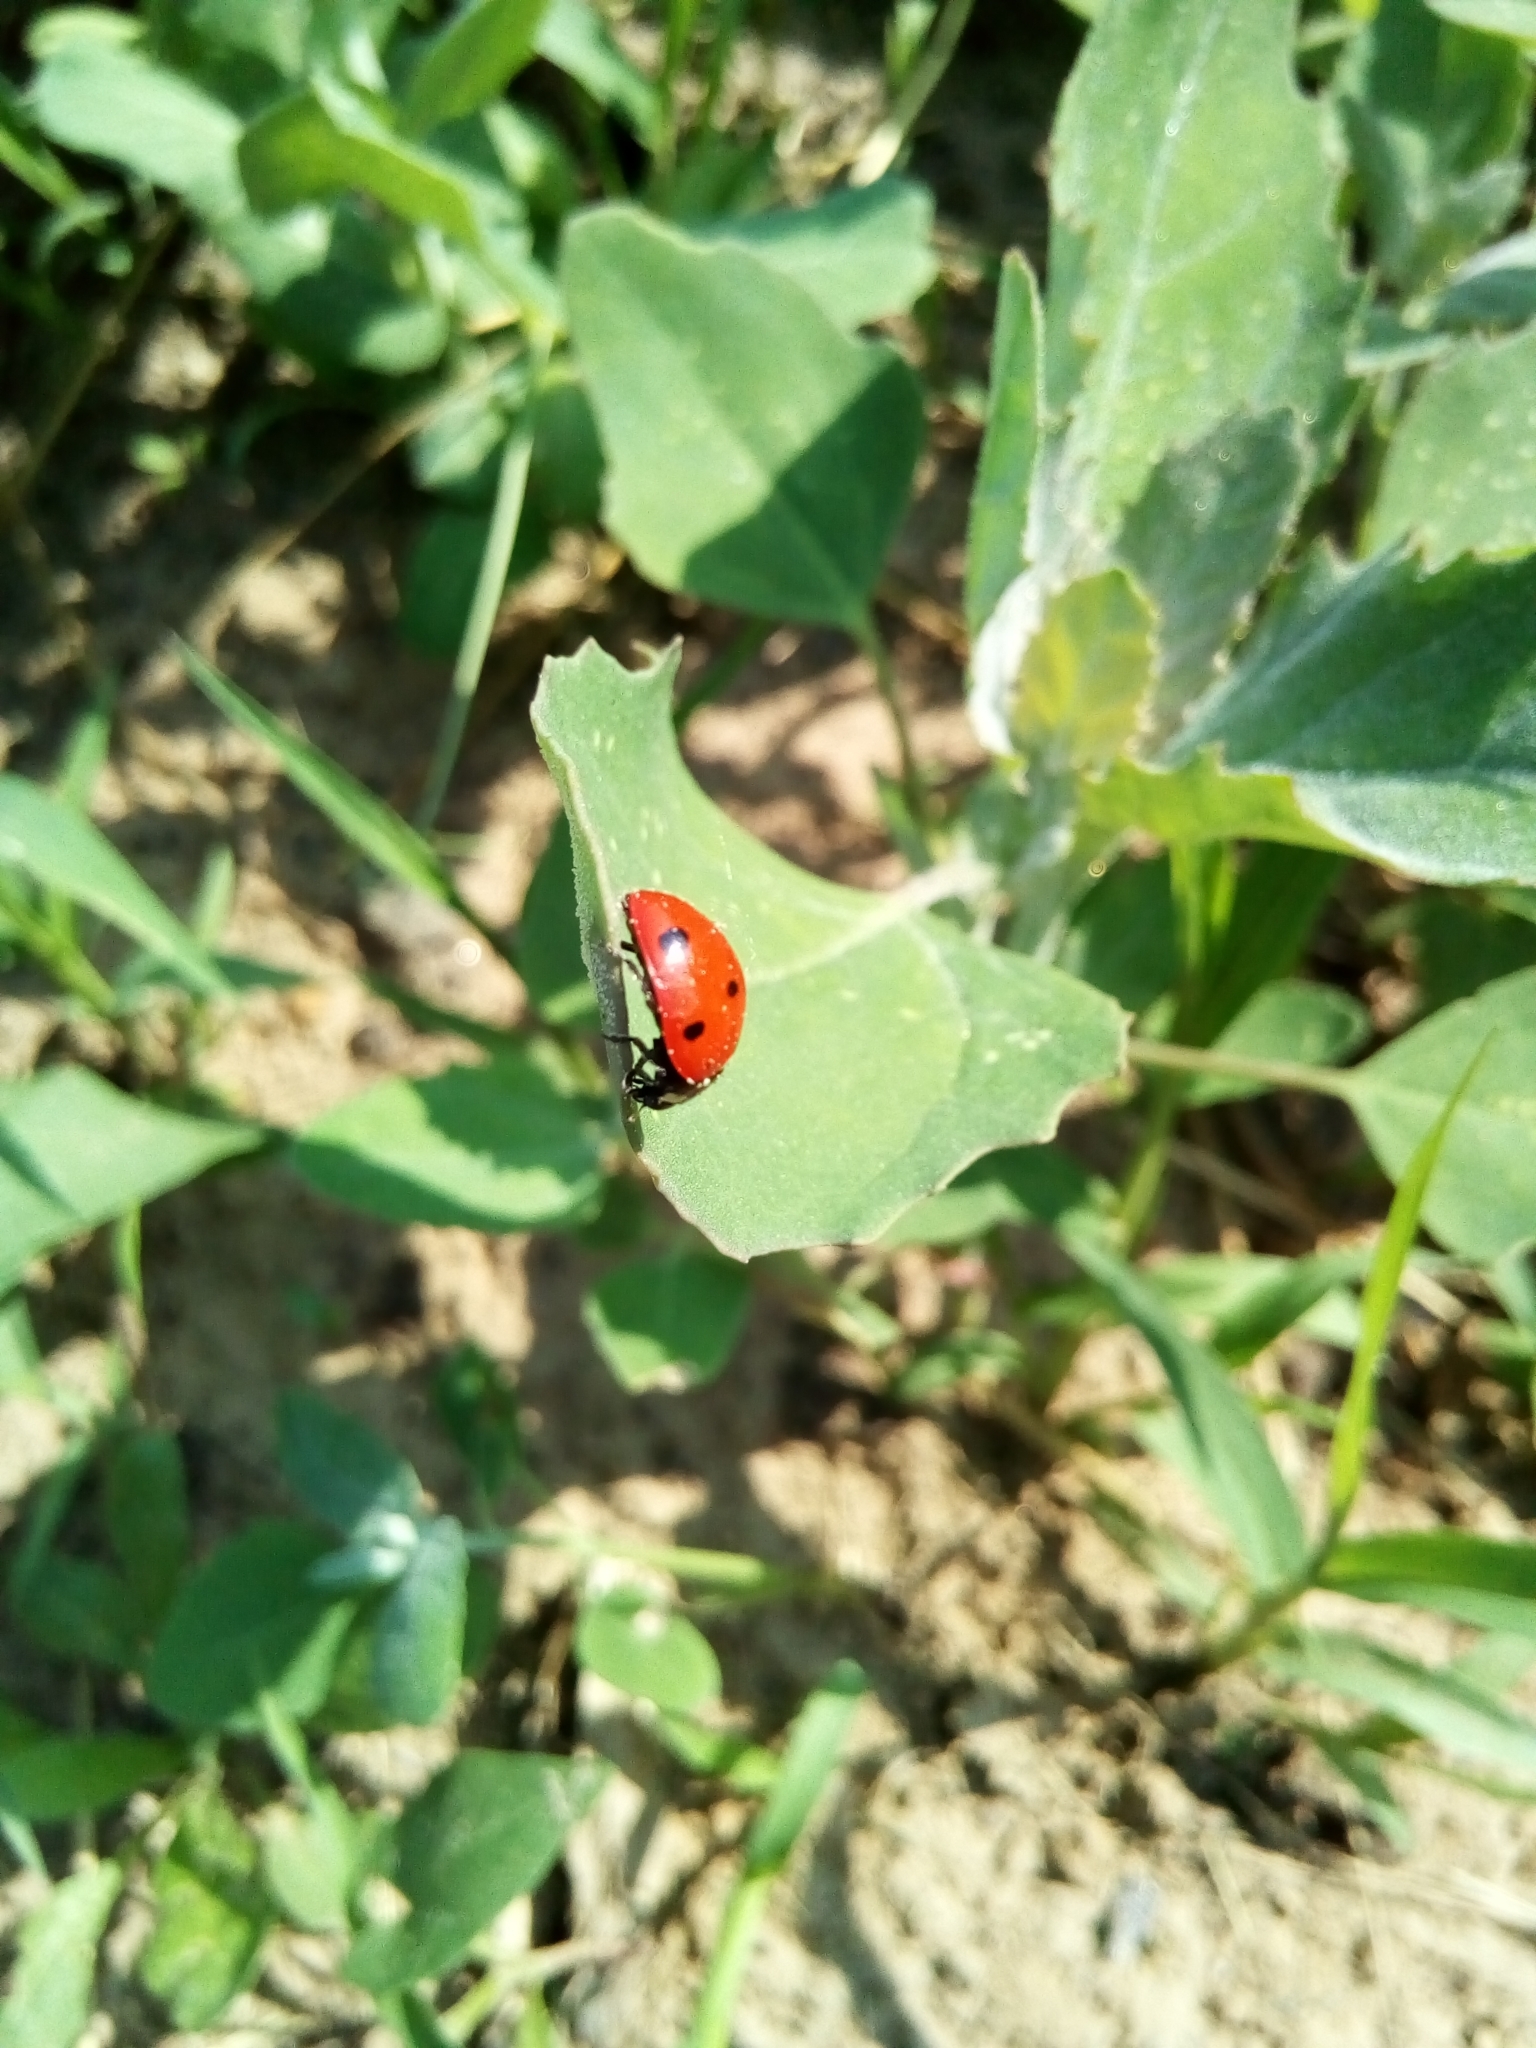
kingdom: Animalia
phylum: Arthropoda
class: Insecta
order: Coleoptera
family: Coccinellidae
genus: Coccinella
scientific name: Coccinella septempunctata
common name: Sevenspotted lady beetle
